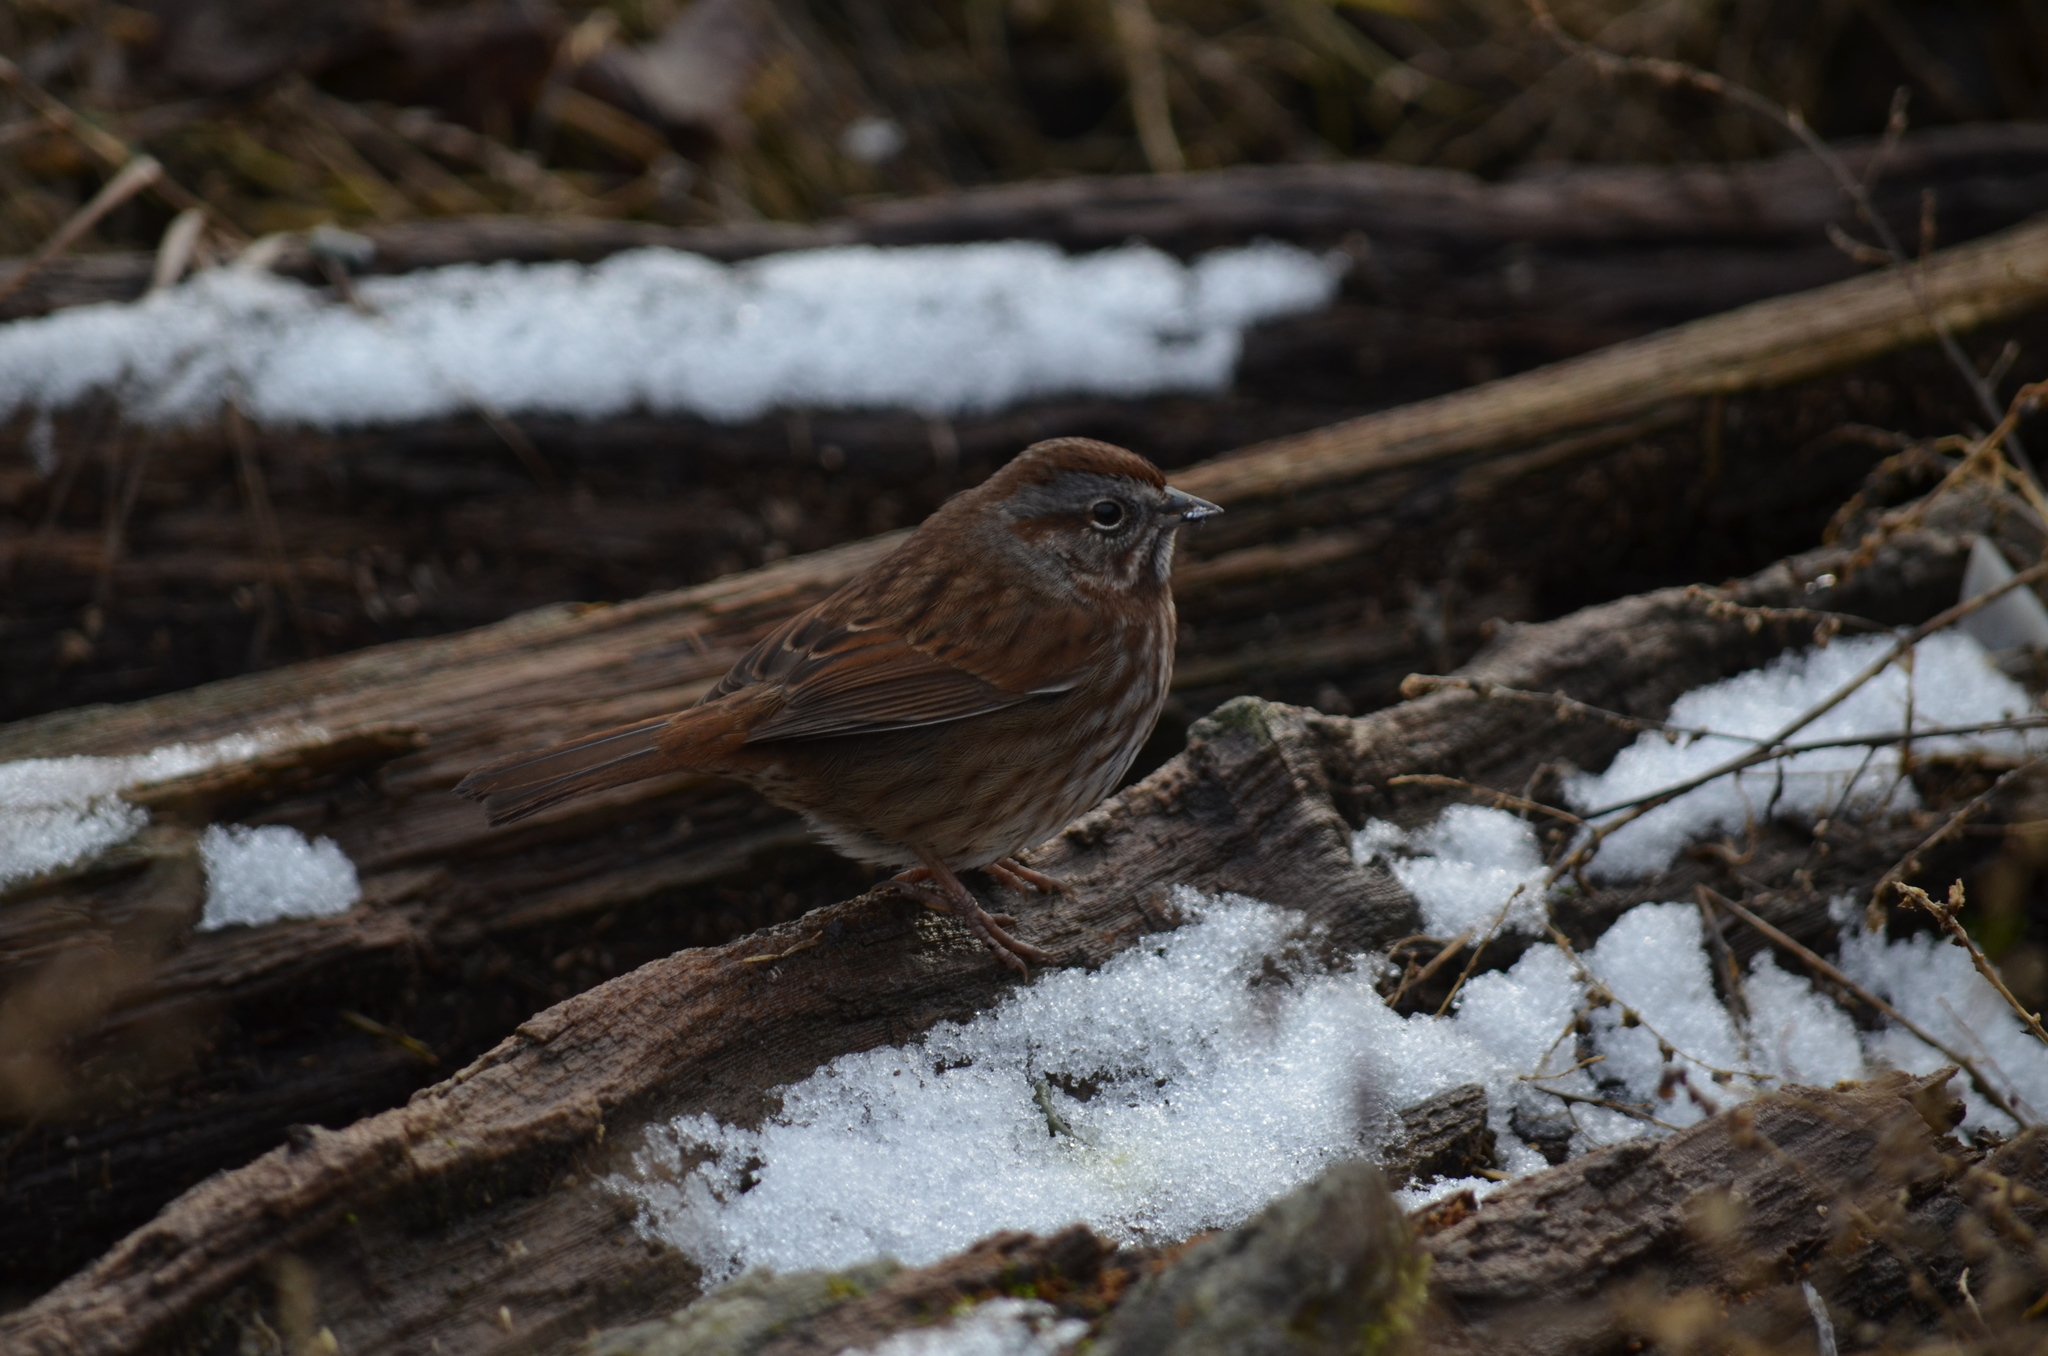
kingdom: Animalia
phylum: Chordata
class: Aves
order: Passeriformes
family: Passerellidae
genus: Melospiza
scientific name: Melospiza melodia
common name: Song sparrow
